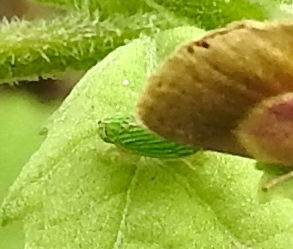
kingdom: Animalia
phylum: Arthropoda
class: Insecta
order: Hemiptera
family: Cicadellidae
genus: Graphocephala
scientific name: Graphocephala cythura
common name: Leafhopper
